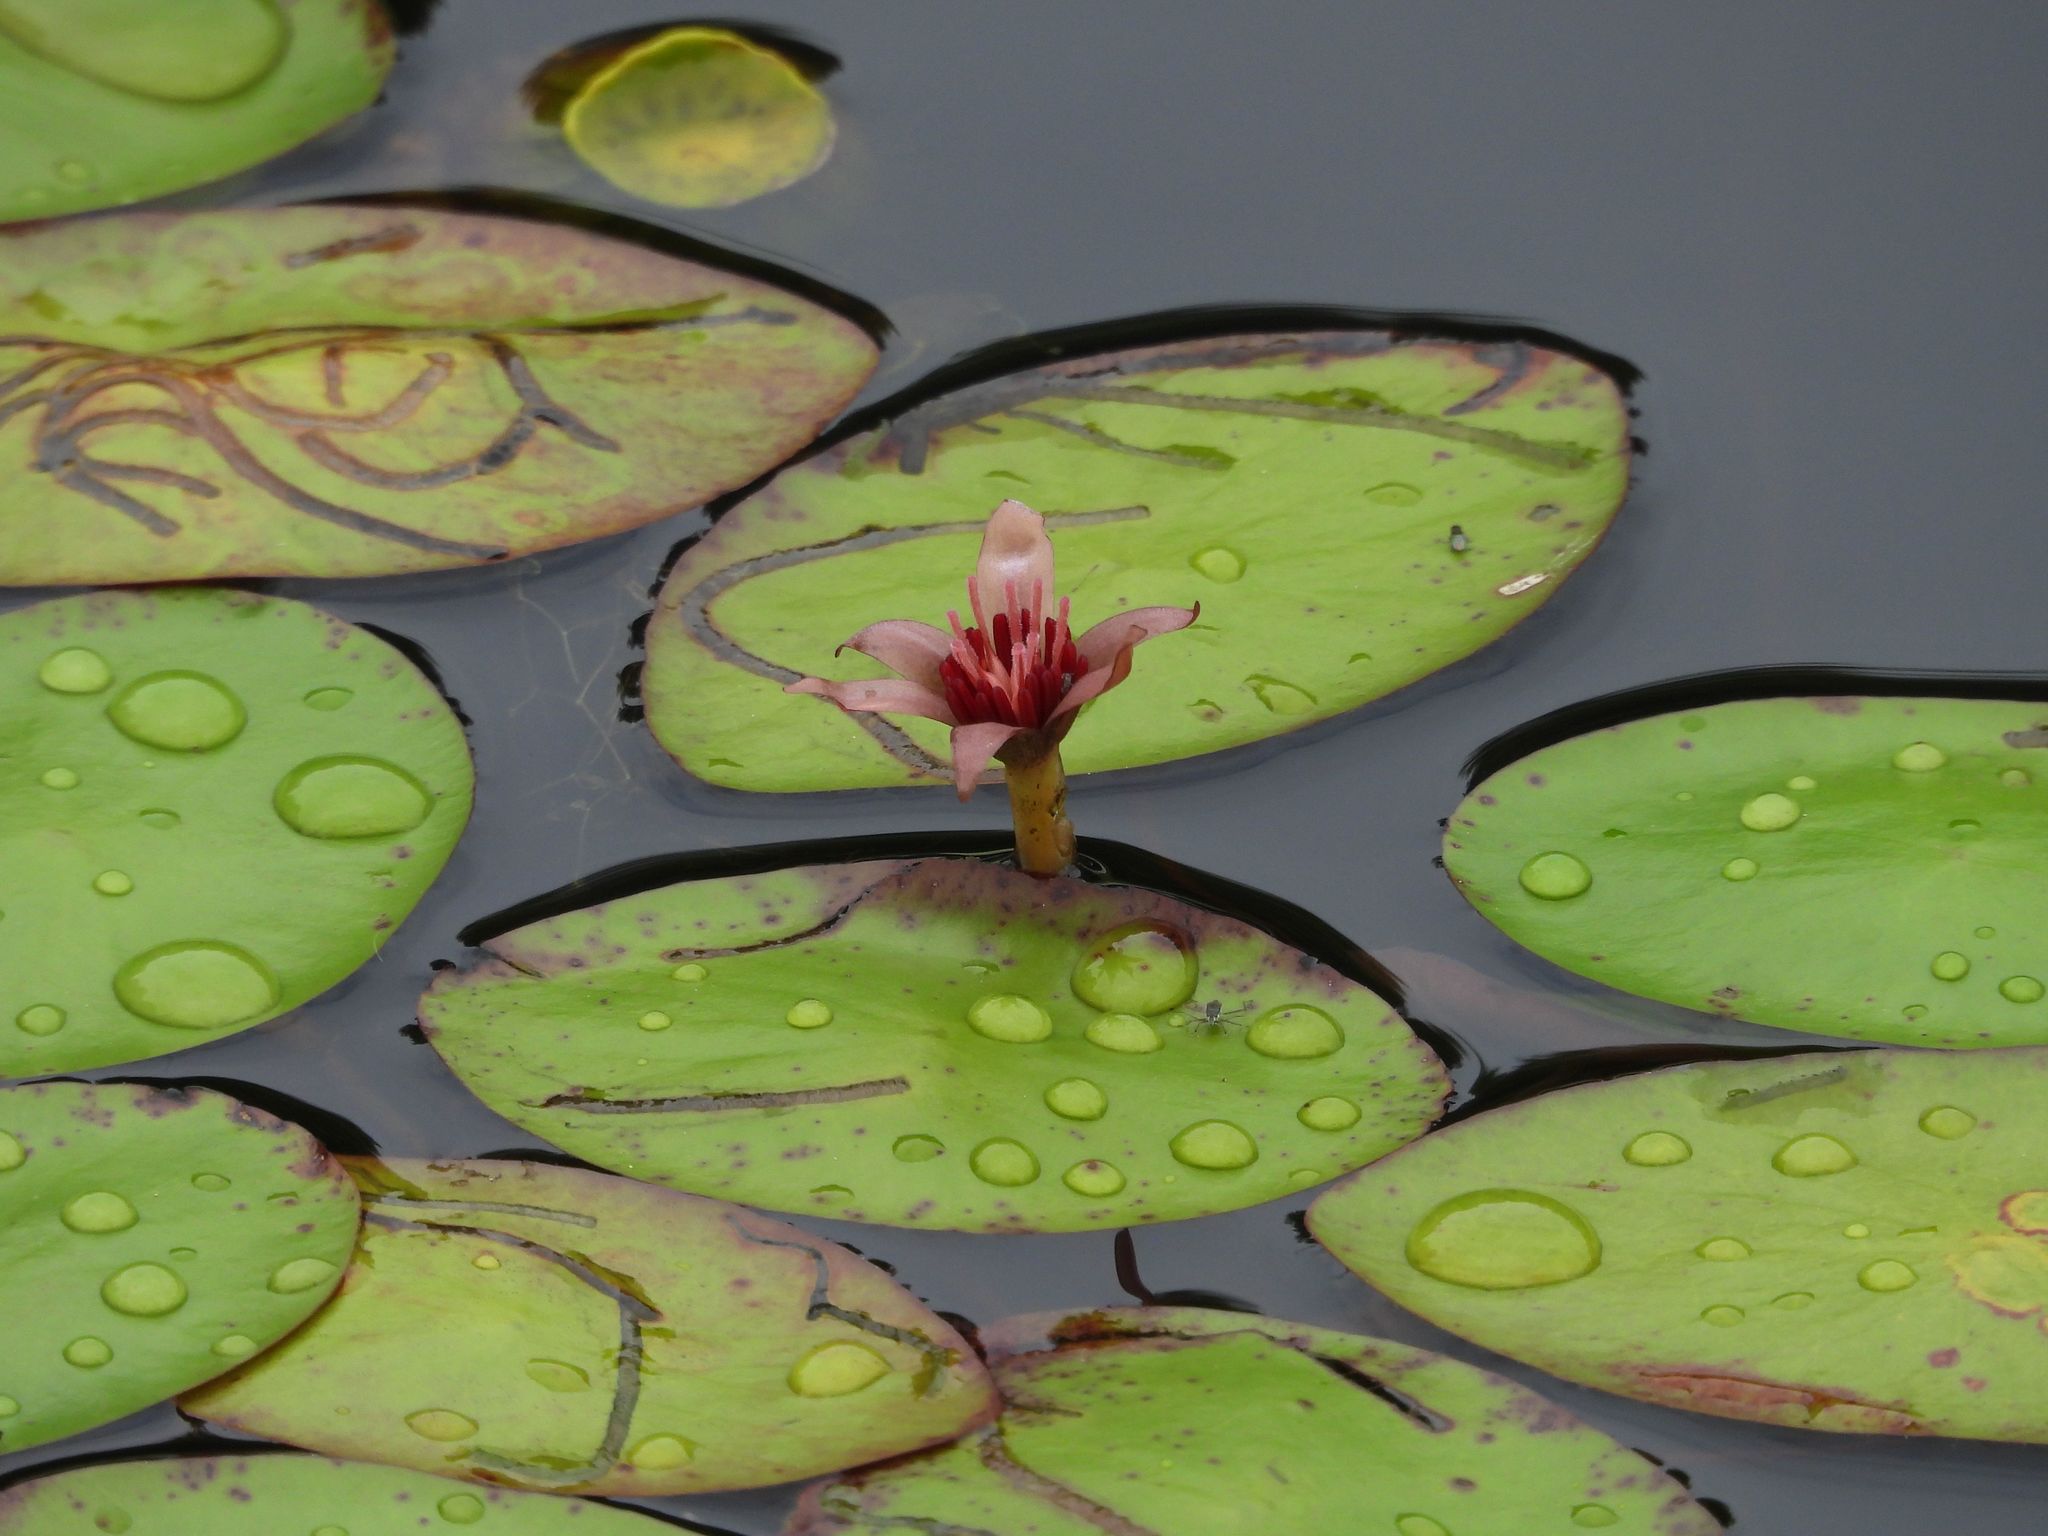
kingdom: Plantae
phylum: Tracheophyta
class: Magnoliopsida
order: Nymphaeales
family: Cabombaceae
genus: Brasenia
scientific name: Brasenia schreberi
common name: Water-shield
